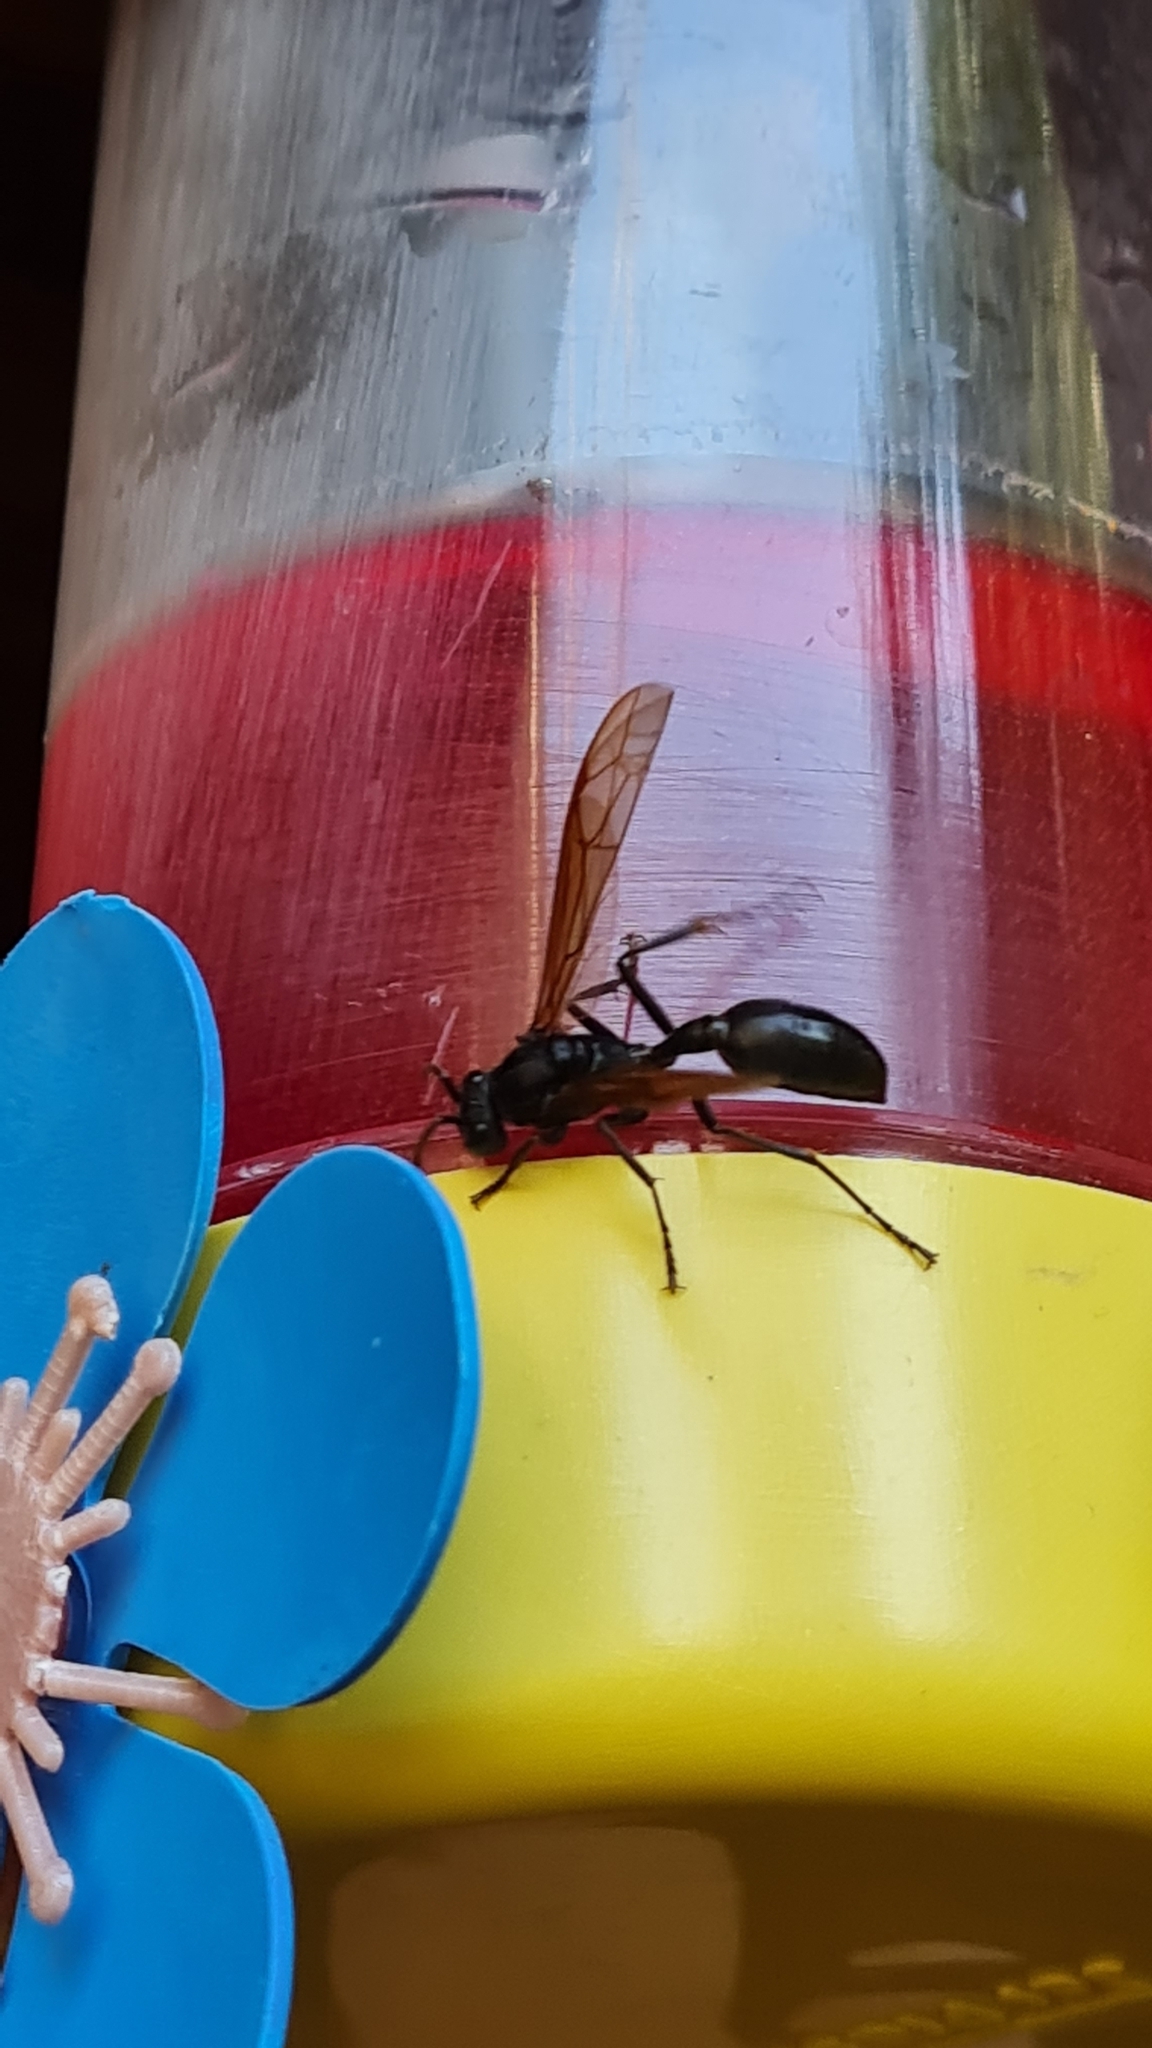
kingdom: Animalia
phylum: Arthropoda
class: Insecta
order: Hymenoptera
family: Vespidae
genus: Agelaia
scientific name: Agelaia angulata
